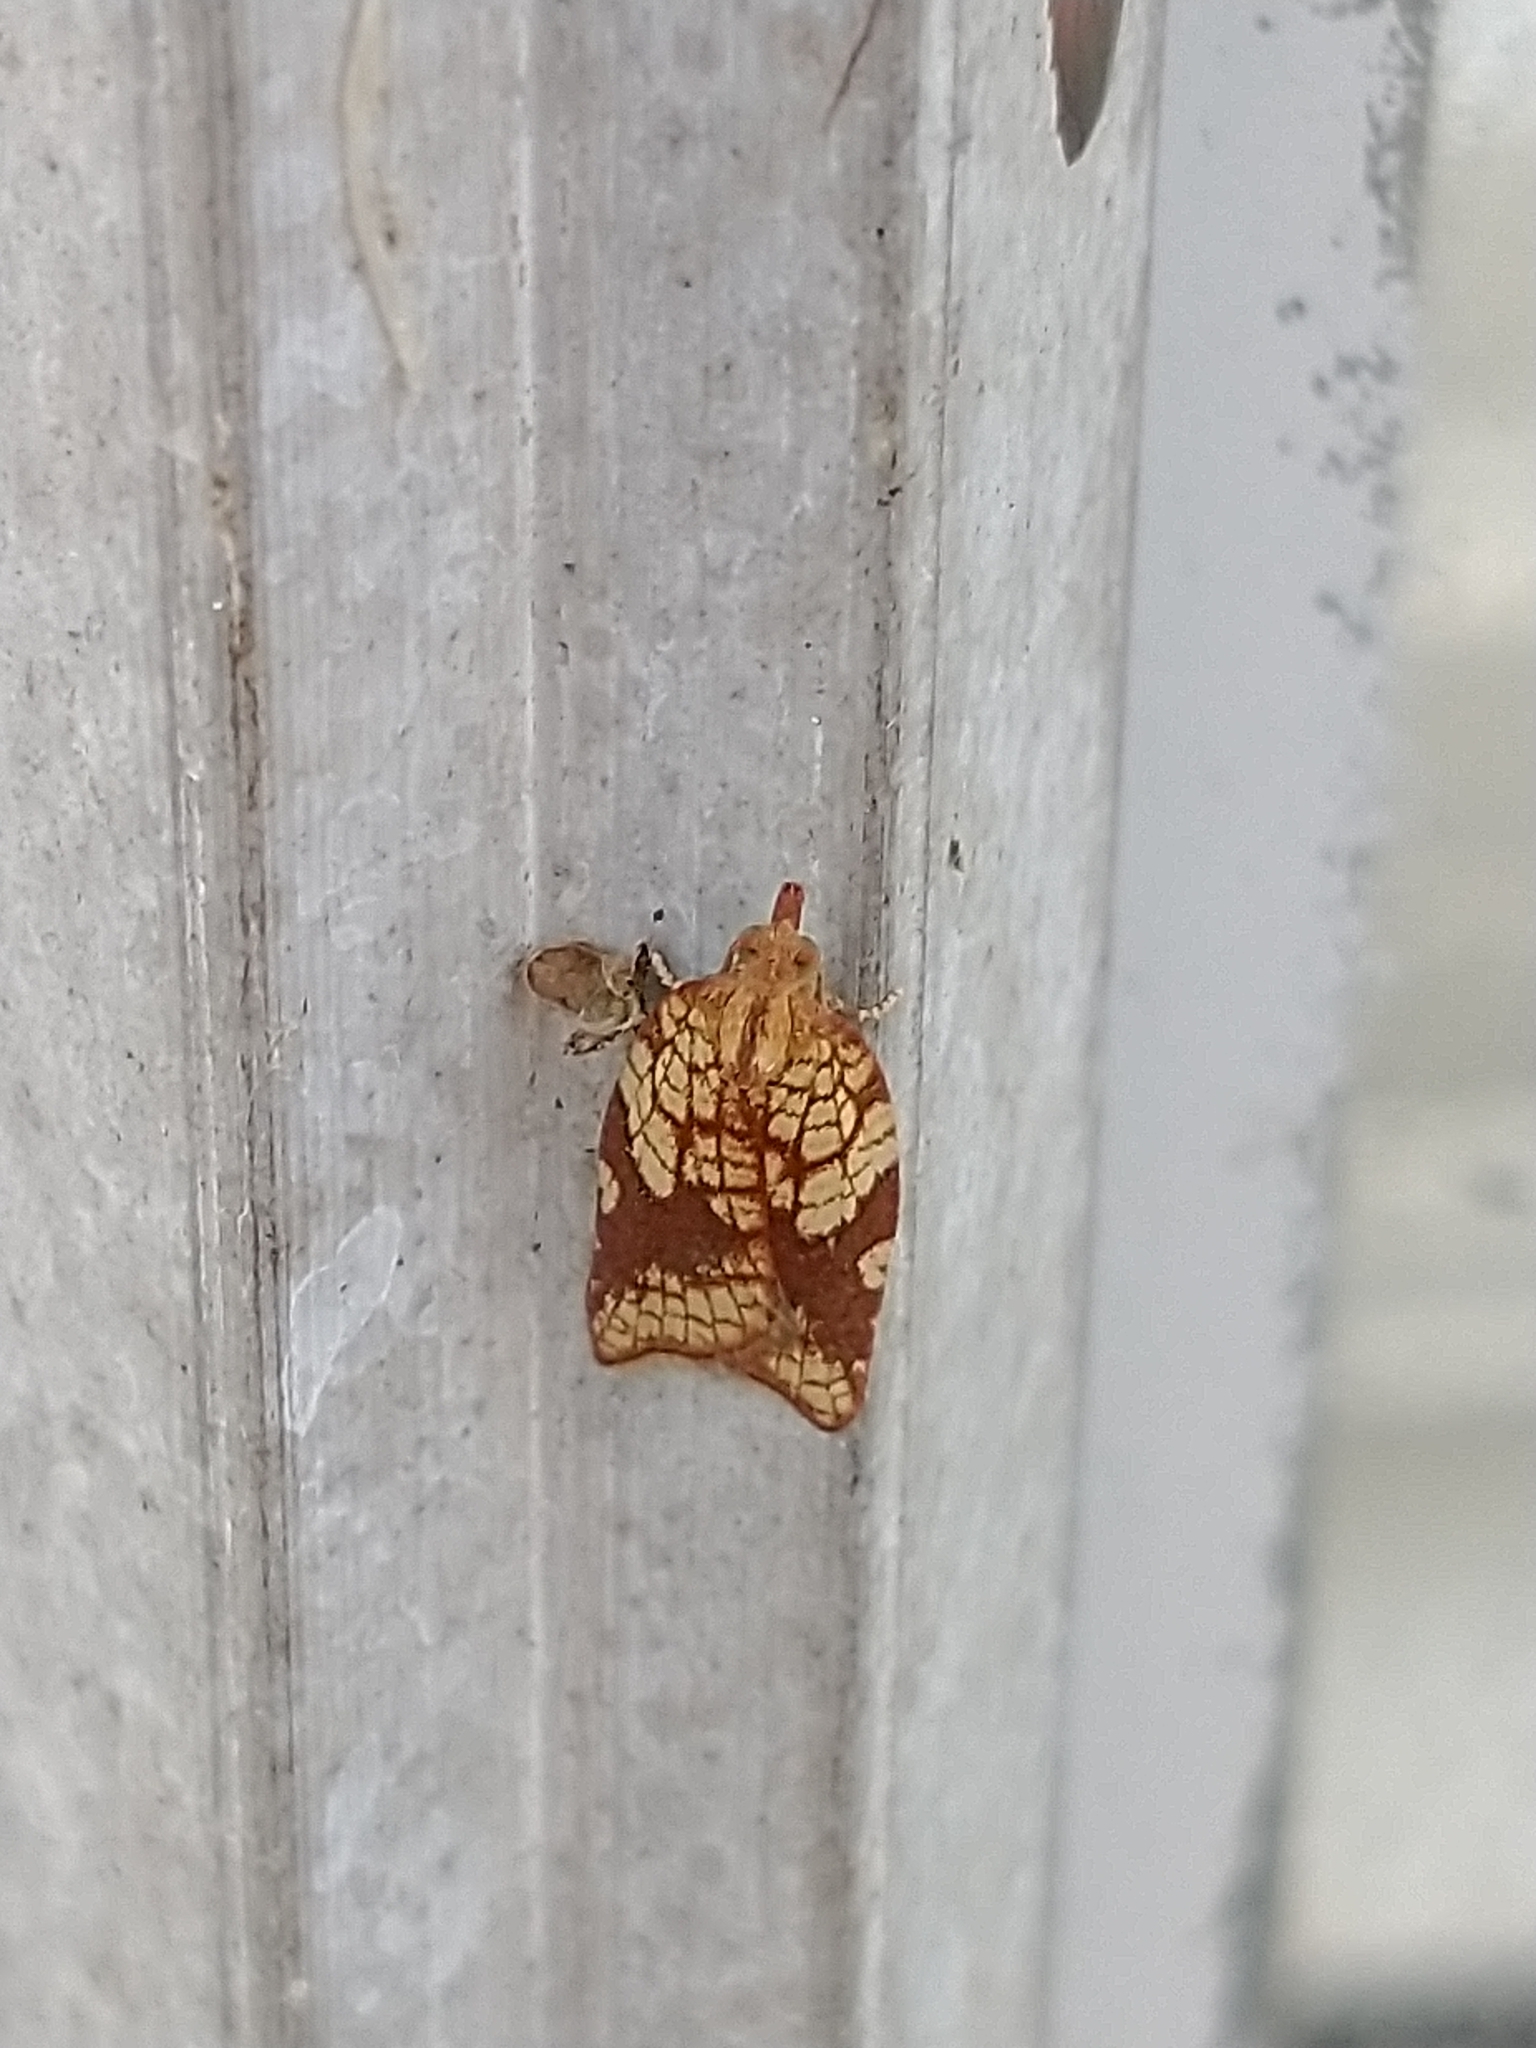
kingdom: Animalia
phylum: Arthropoda
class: Insecta
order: Lepidoptera
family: Tortricidae
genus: Epiphyas
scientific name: Epiphyas postvittana
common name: Light brown apple moth
